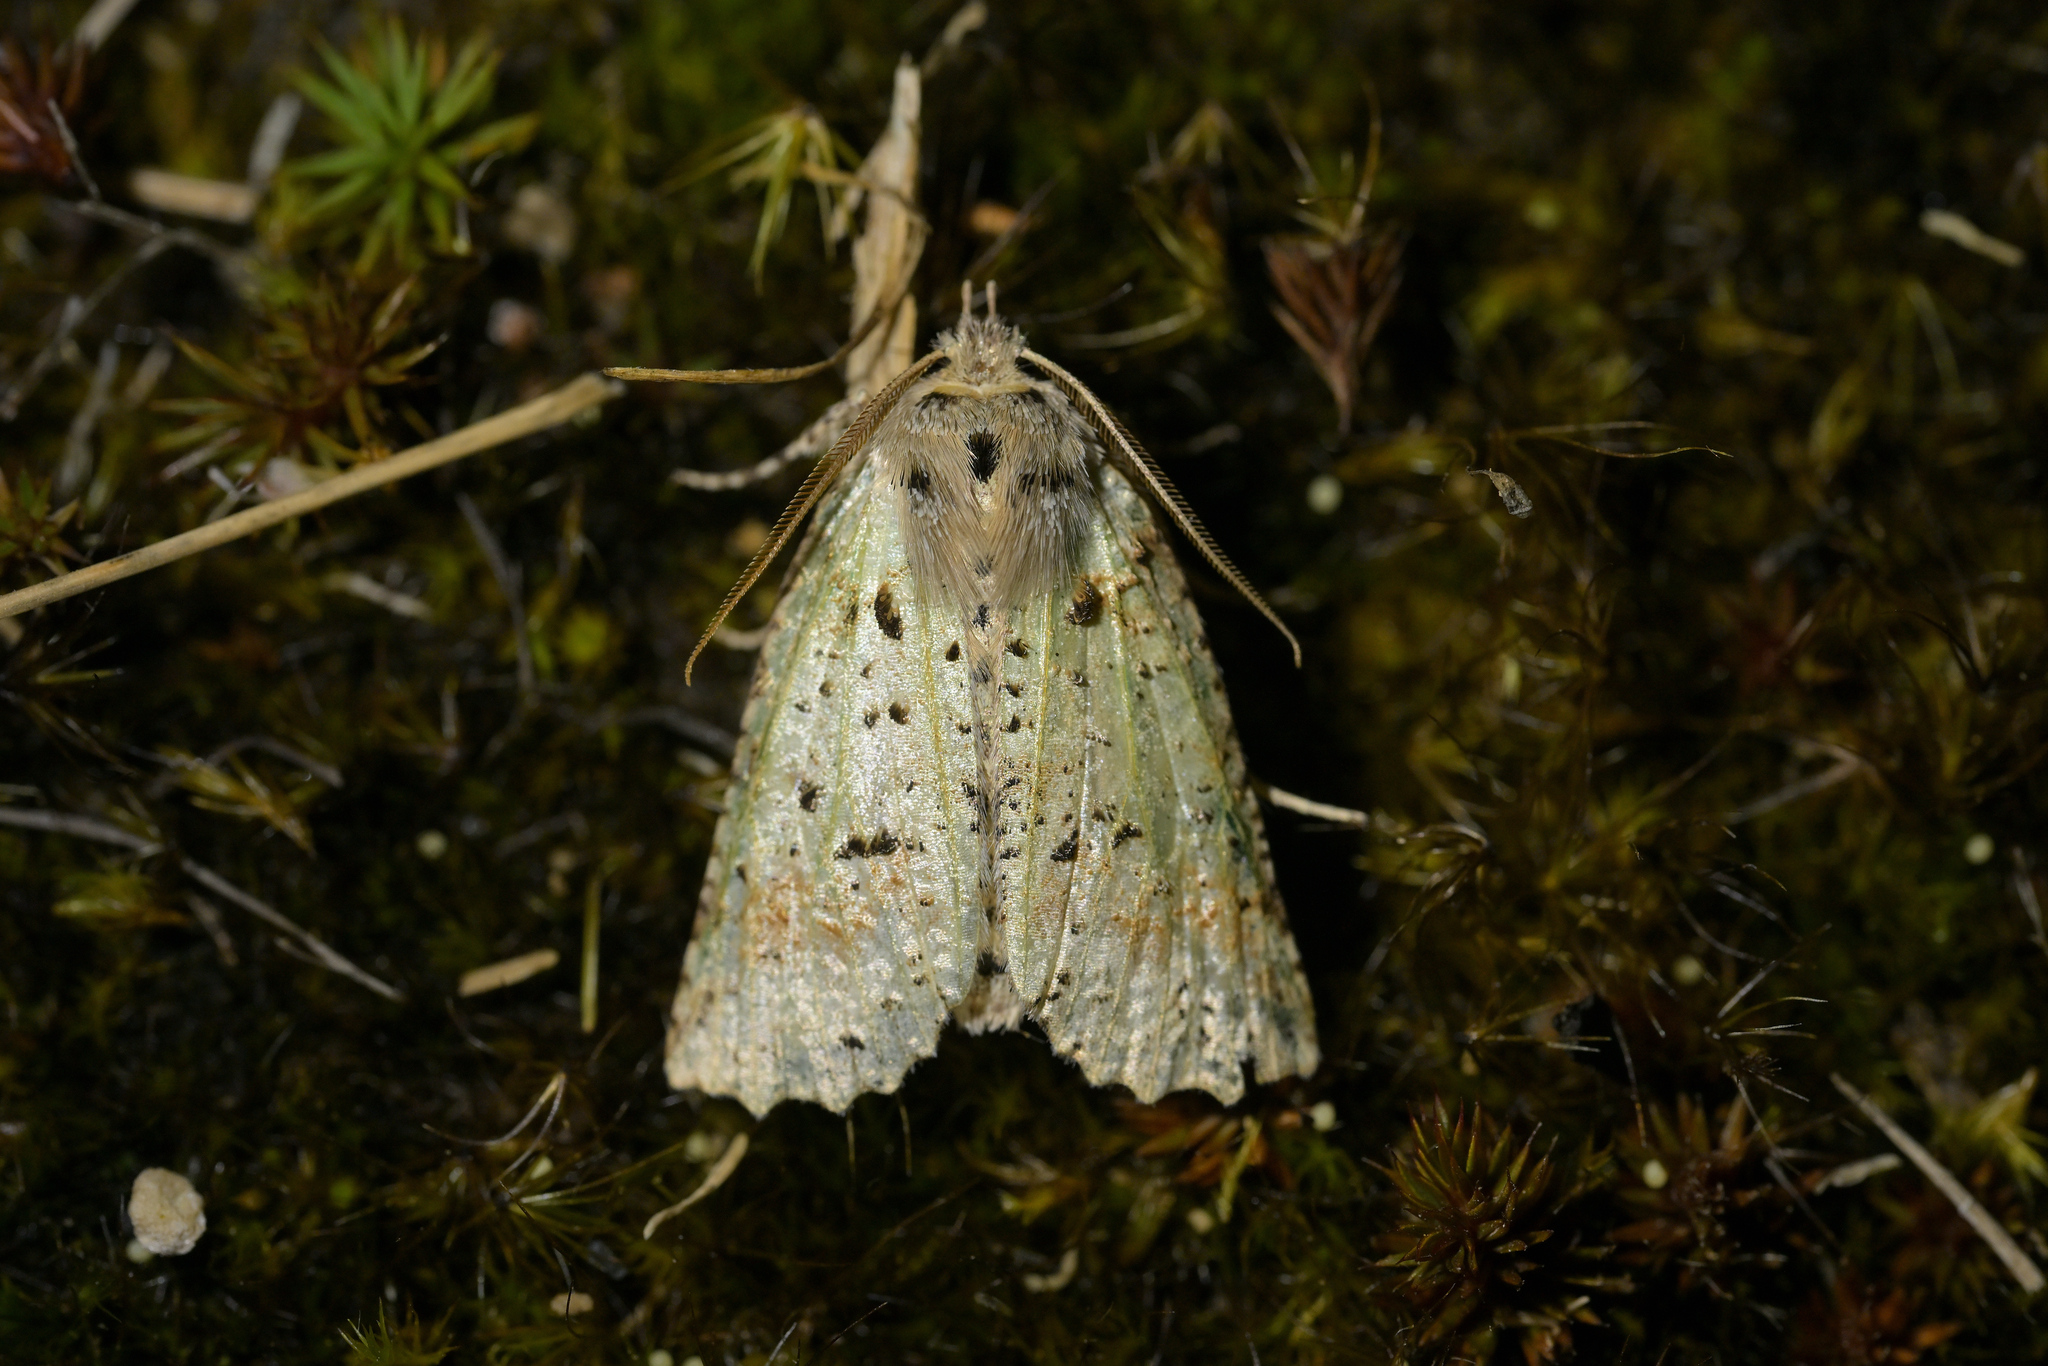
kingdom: Animalia
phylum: Arthropoda
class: Insecta
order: Lepidoptera
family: Geometridae
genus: Declana
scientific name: Declana floccosa
